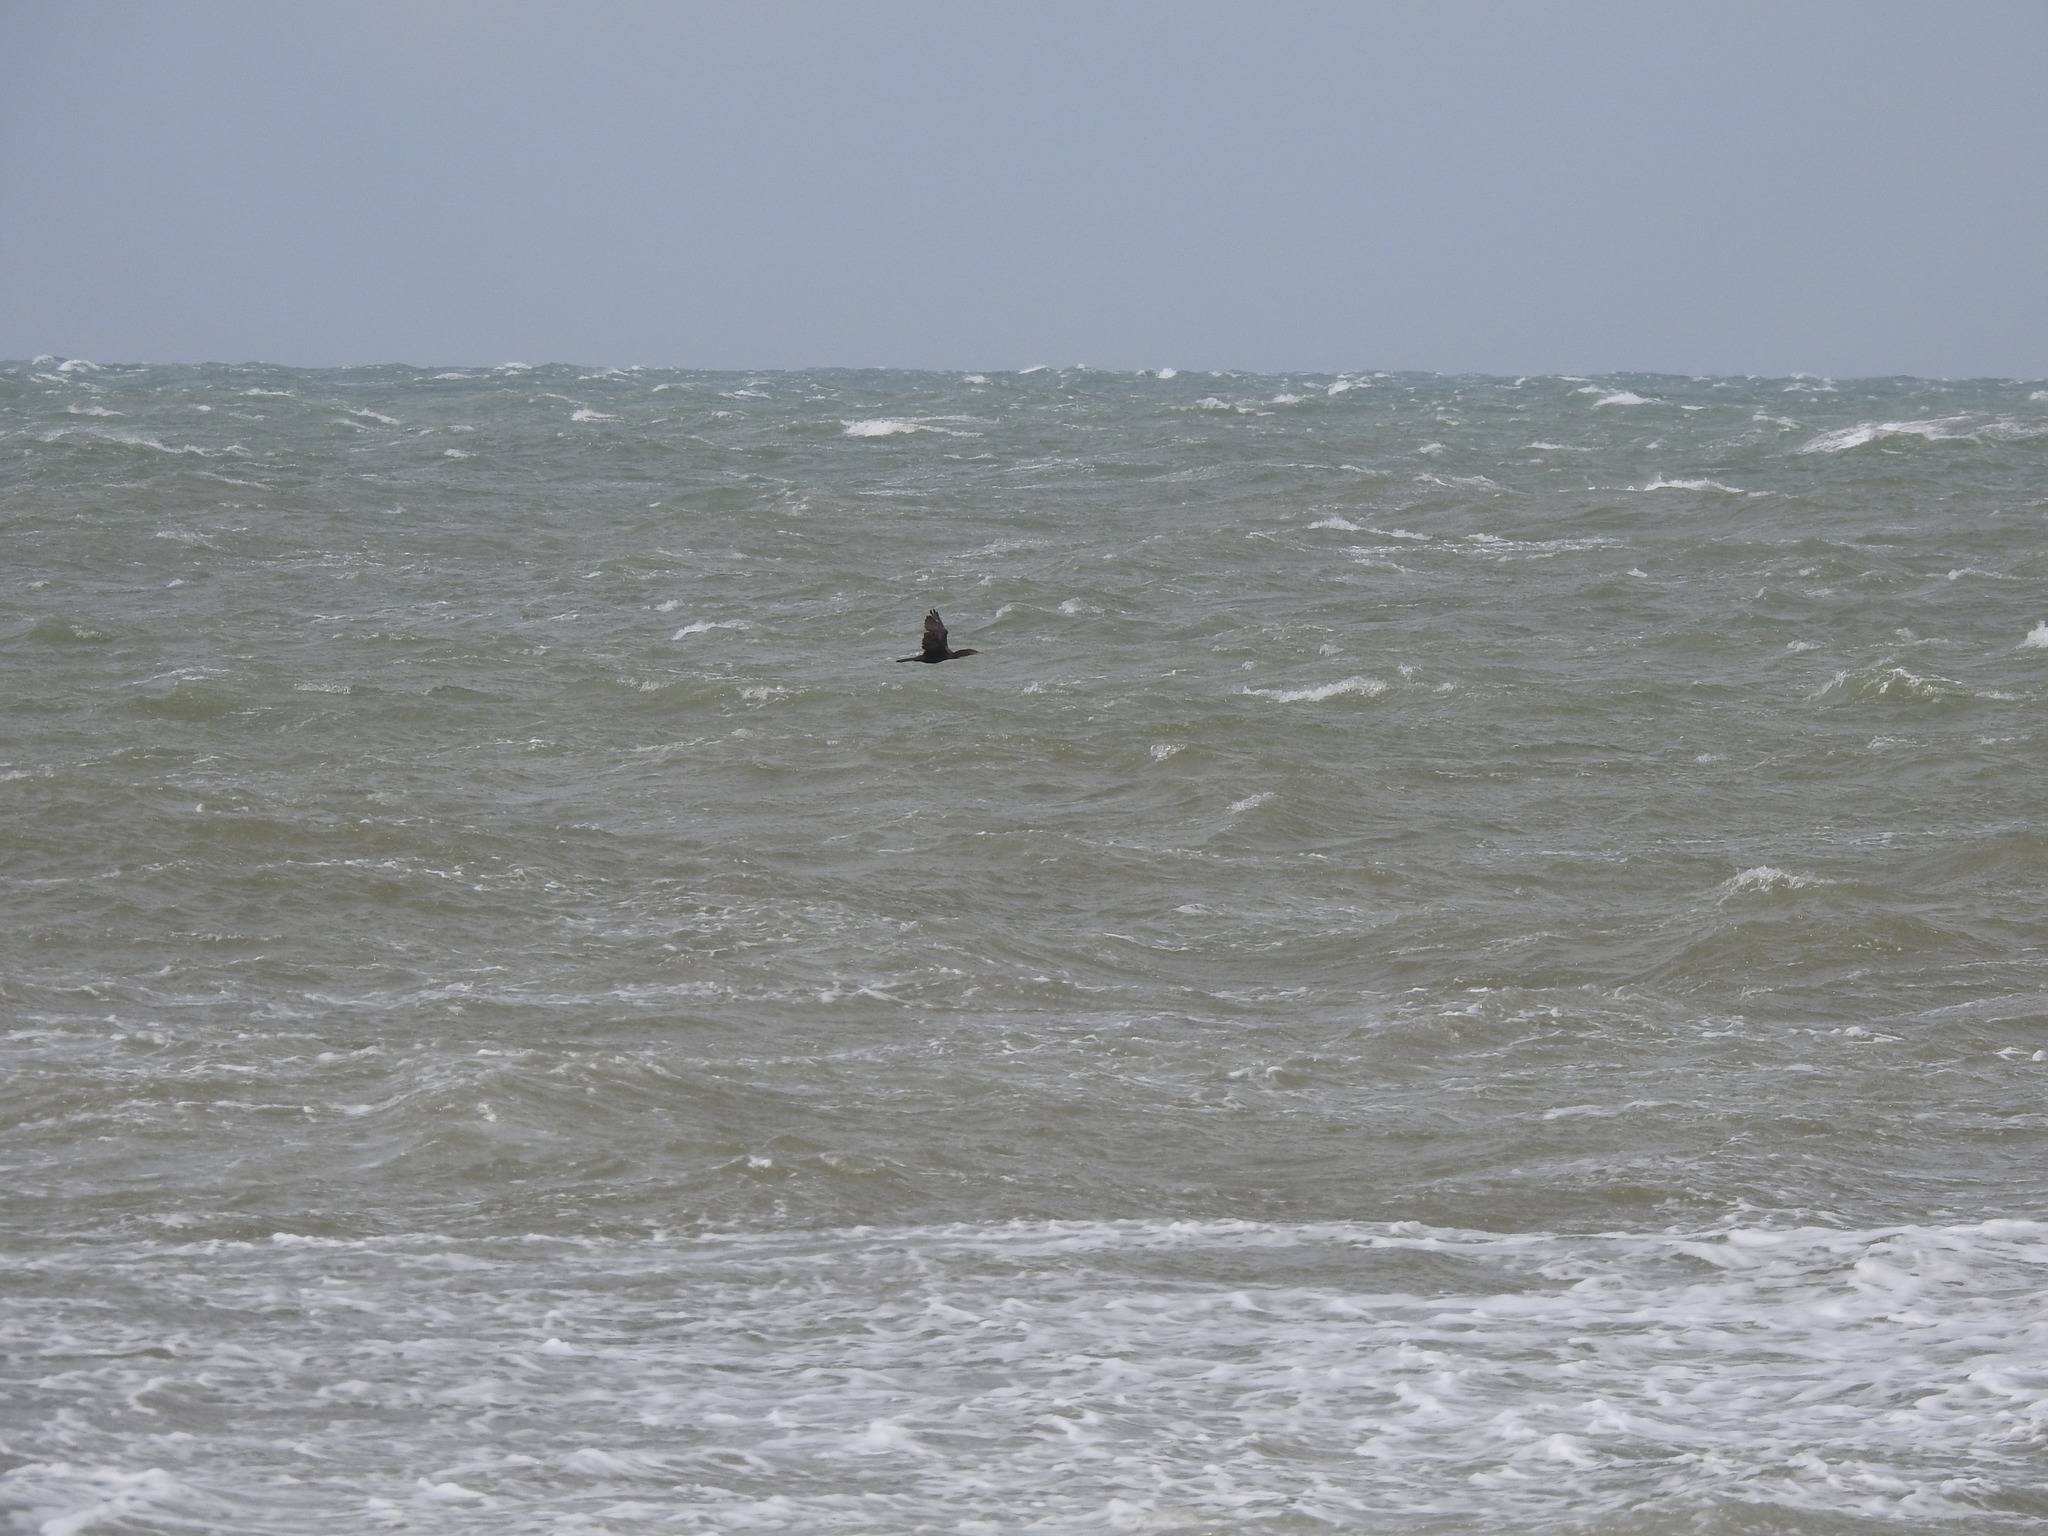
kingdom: Animalia
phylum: Chordata
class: Aves
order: Suliformes
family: Phalacrocoracidae
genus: Phalacrocorax
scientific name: Phalacrocorax brasilianus
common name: Neotropic cormorant
